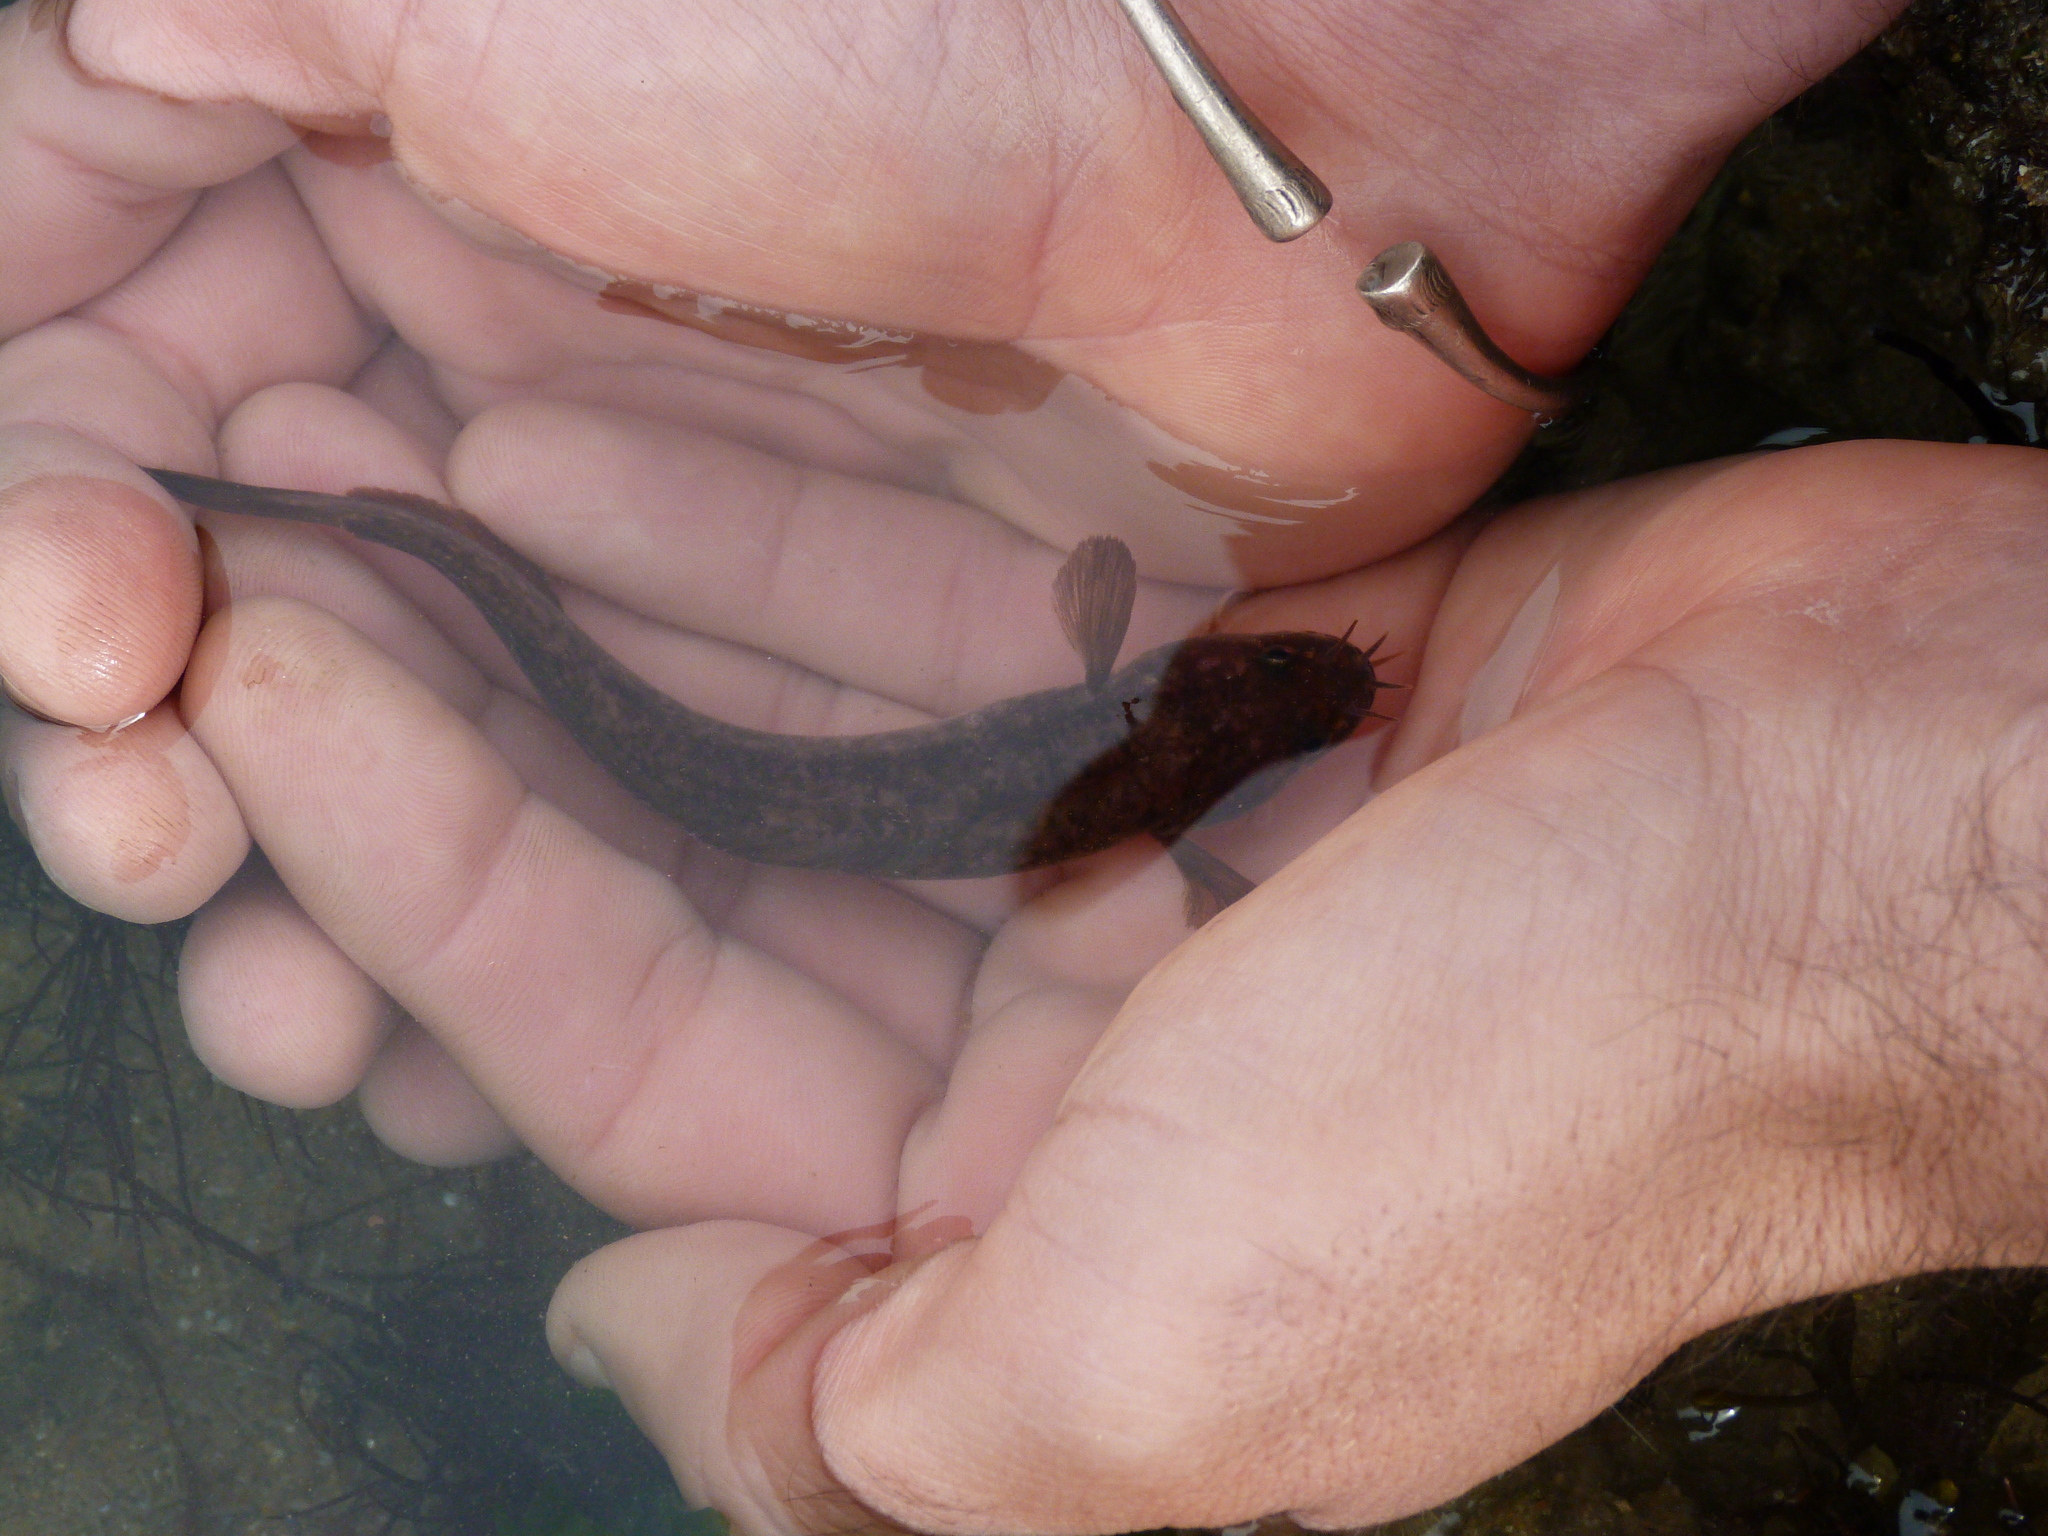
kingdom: Animalia
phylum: Chordata
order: Gadiformes
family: Lotidae
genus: Ciliata
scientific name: Ciliata mustela
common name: Five-bearded rockling
